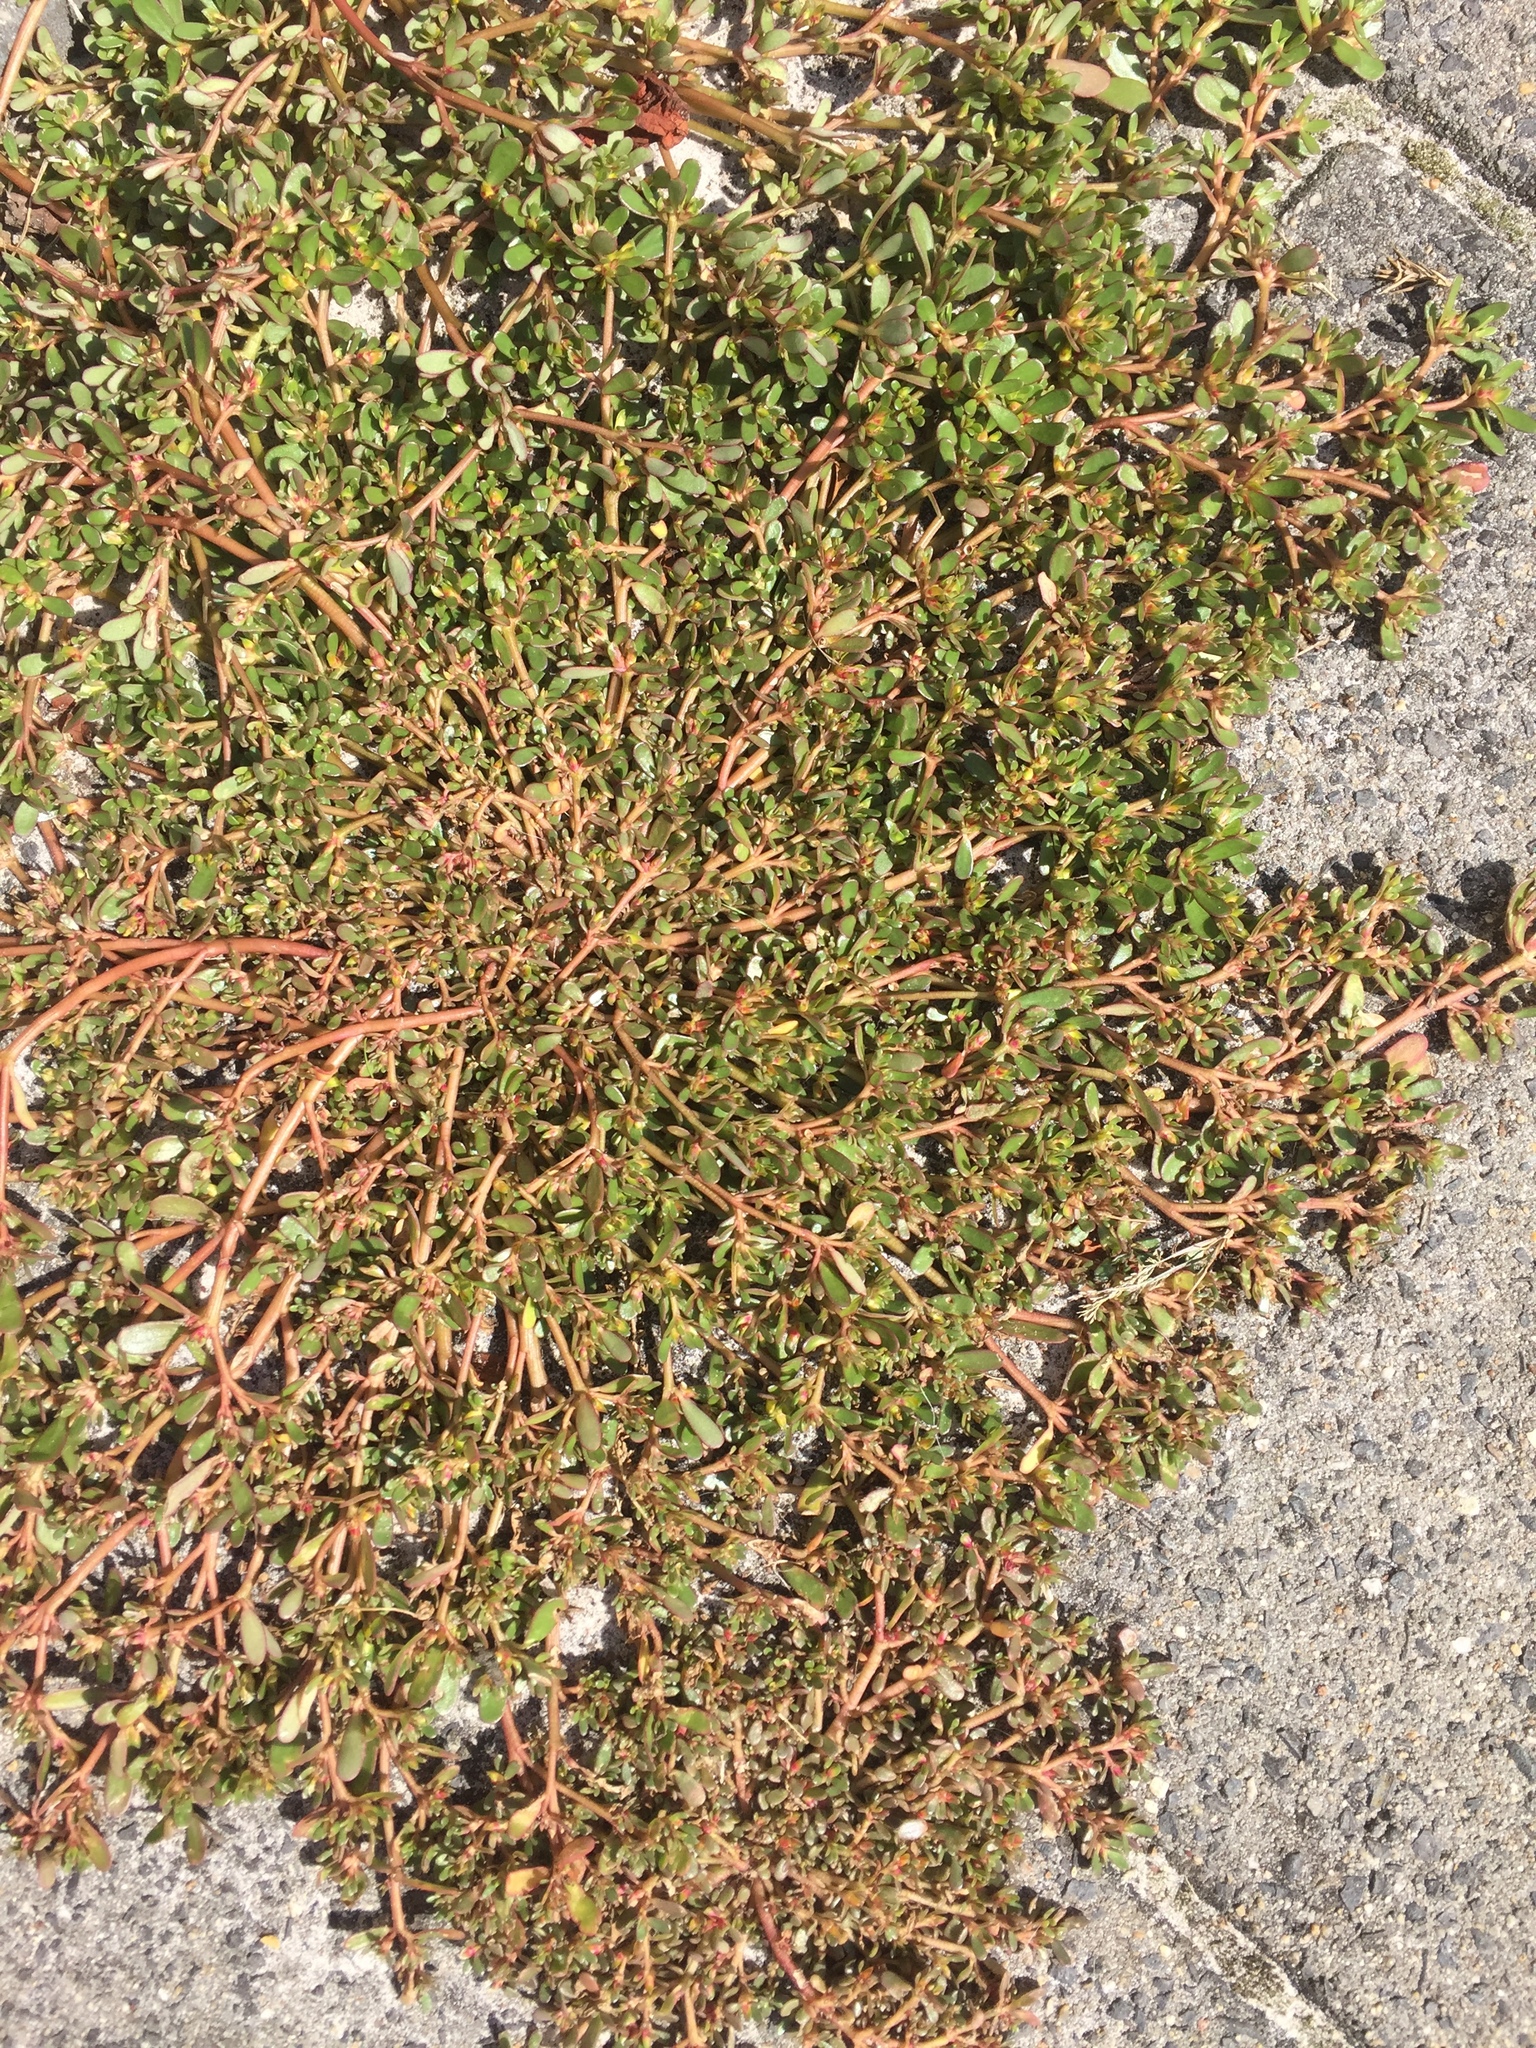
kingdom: Plantae
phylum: Tracheophyta
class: Magnoliopsida
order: Caryophyllales
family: Portulacaceae
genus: Portulaca
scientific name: Portulaca oleracea
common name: Common purslane
